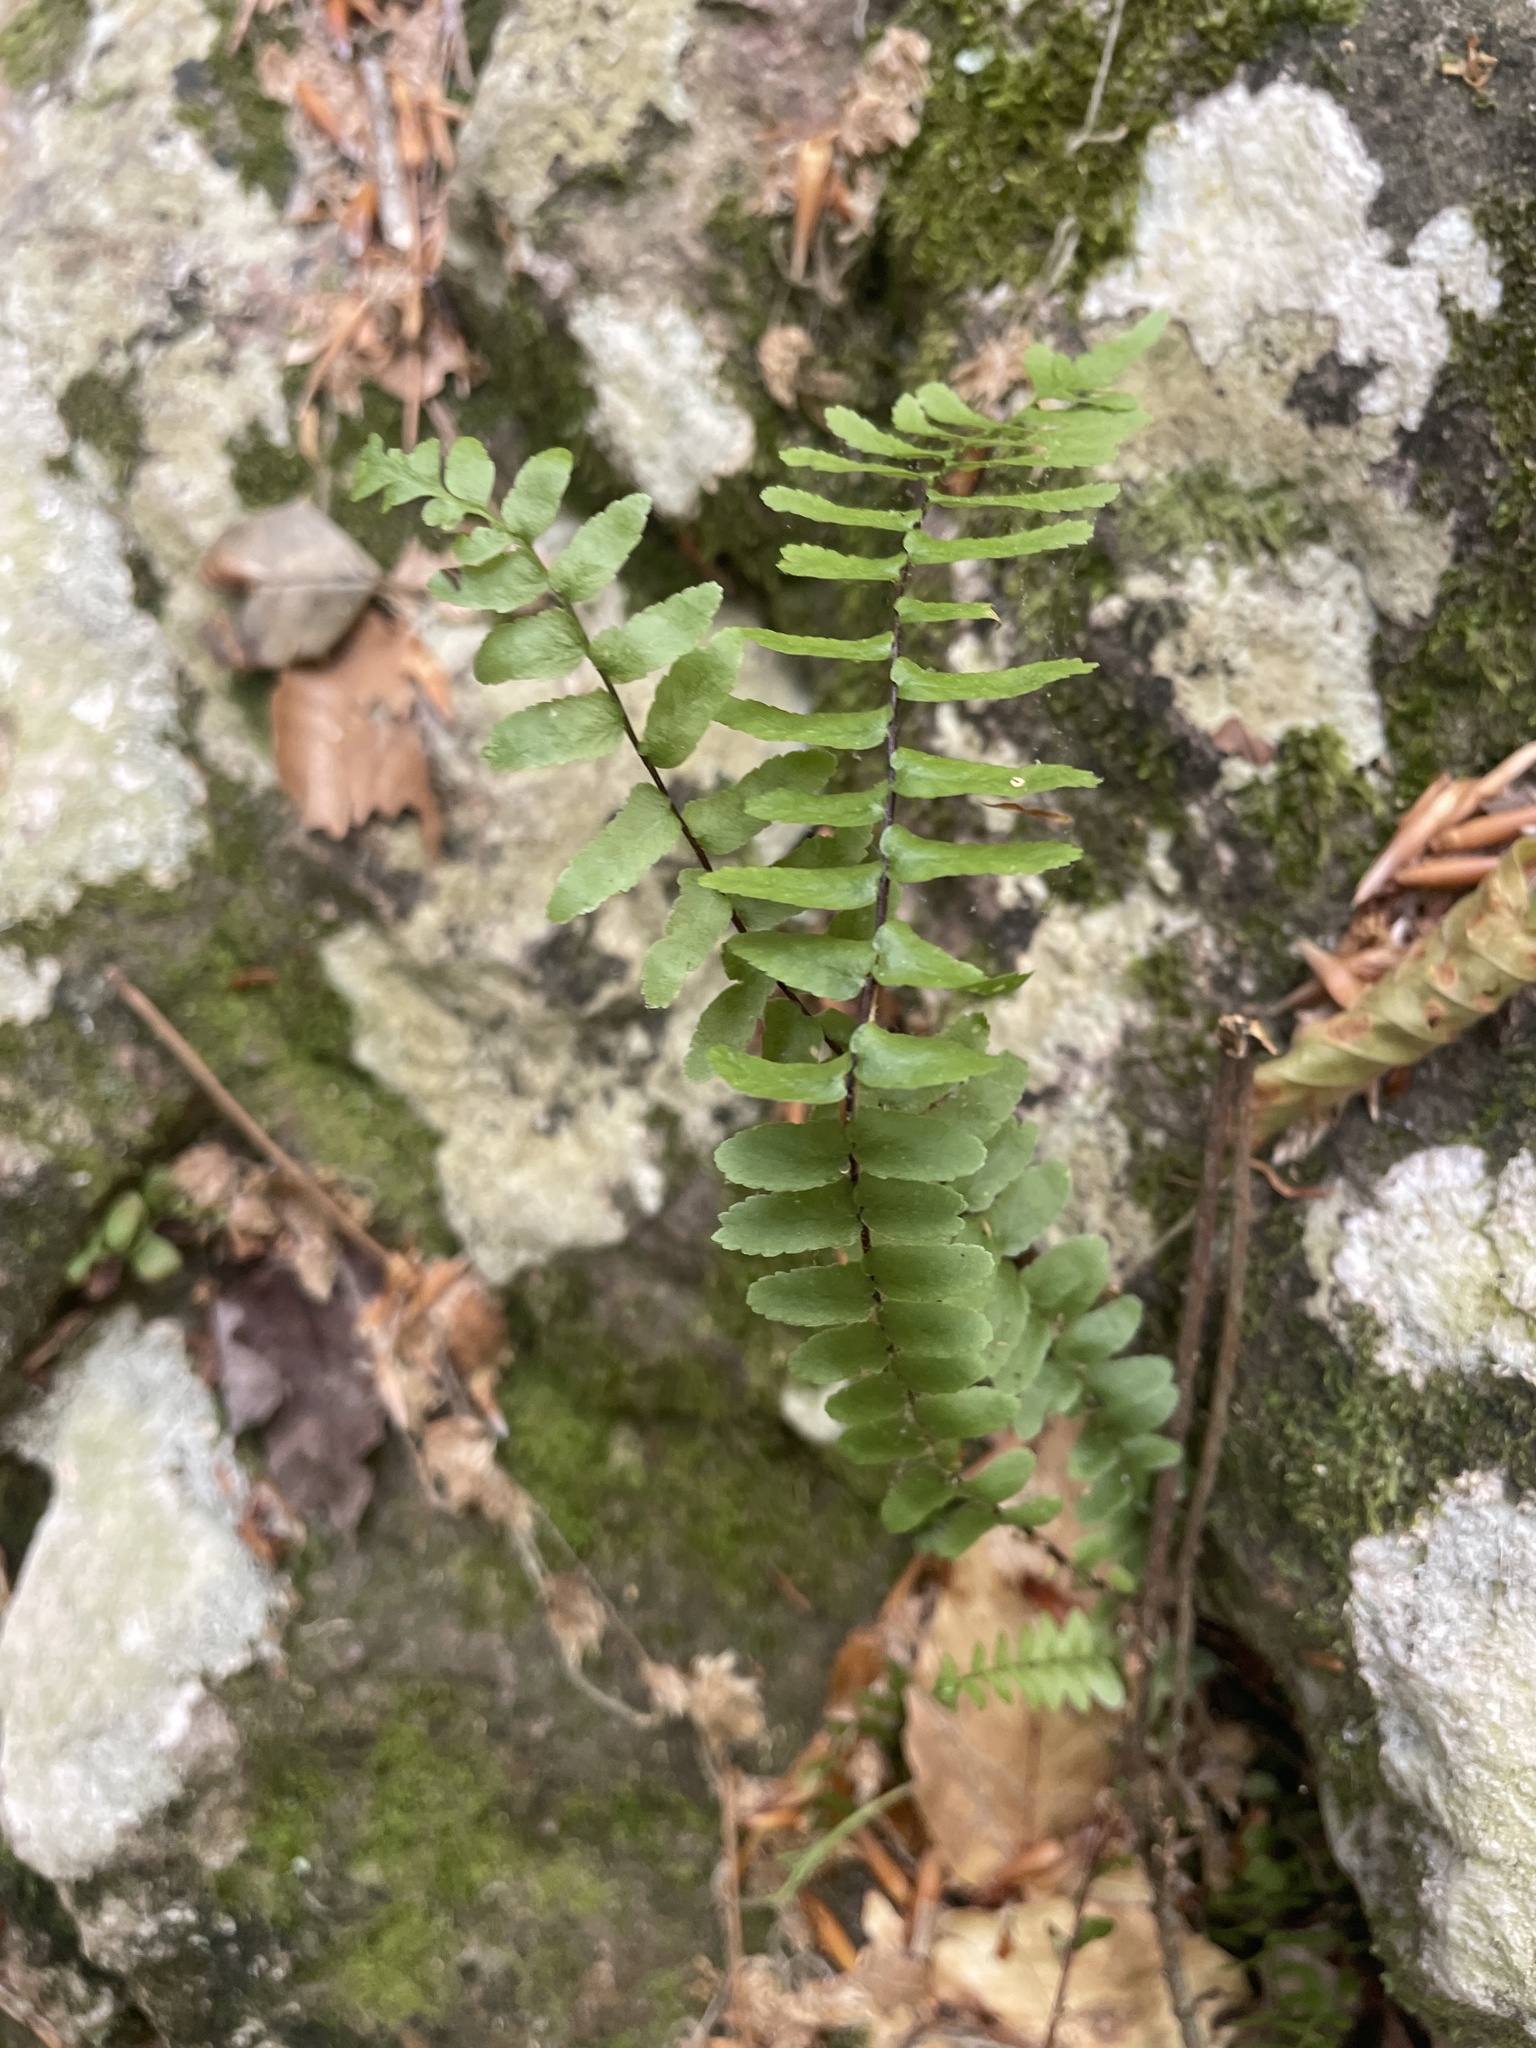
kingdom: Plantae
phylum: Tracheophyta
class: Polypodiopsida
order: Polypodiales
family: Aspleniaceae
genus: Asplenium
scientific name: Asplenium platyneuron
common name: Ebony spleenwort
